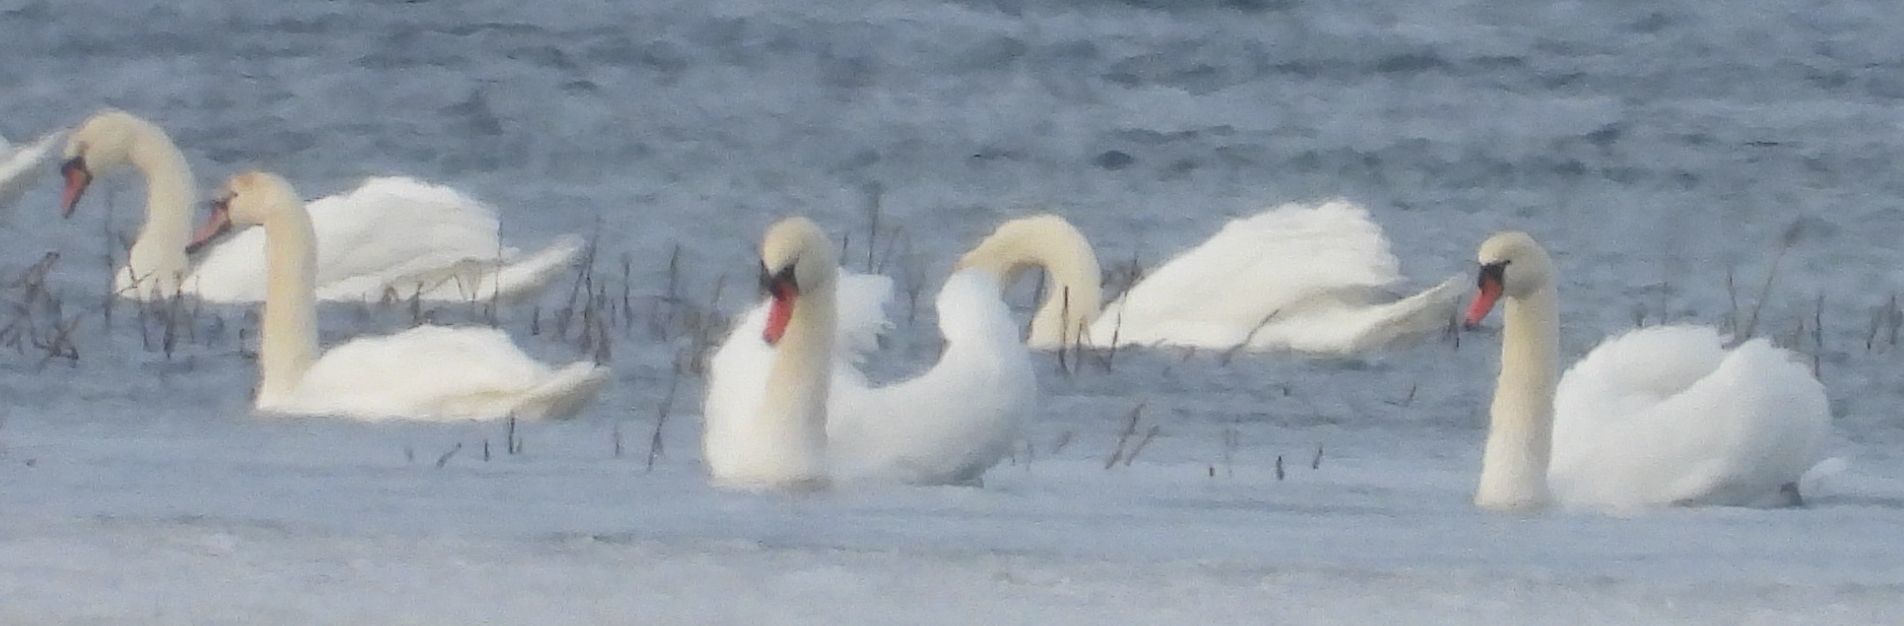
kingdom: Animalia
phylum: Chordata
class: Aves
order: Anseriformes
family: Anatidae
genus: Cygnus
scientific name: Cygnus olor
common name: Mute swan
